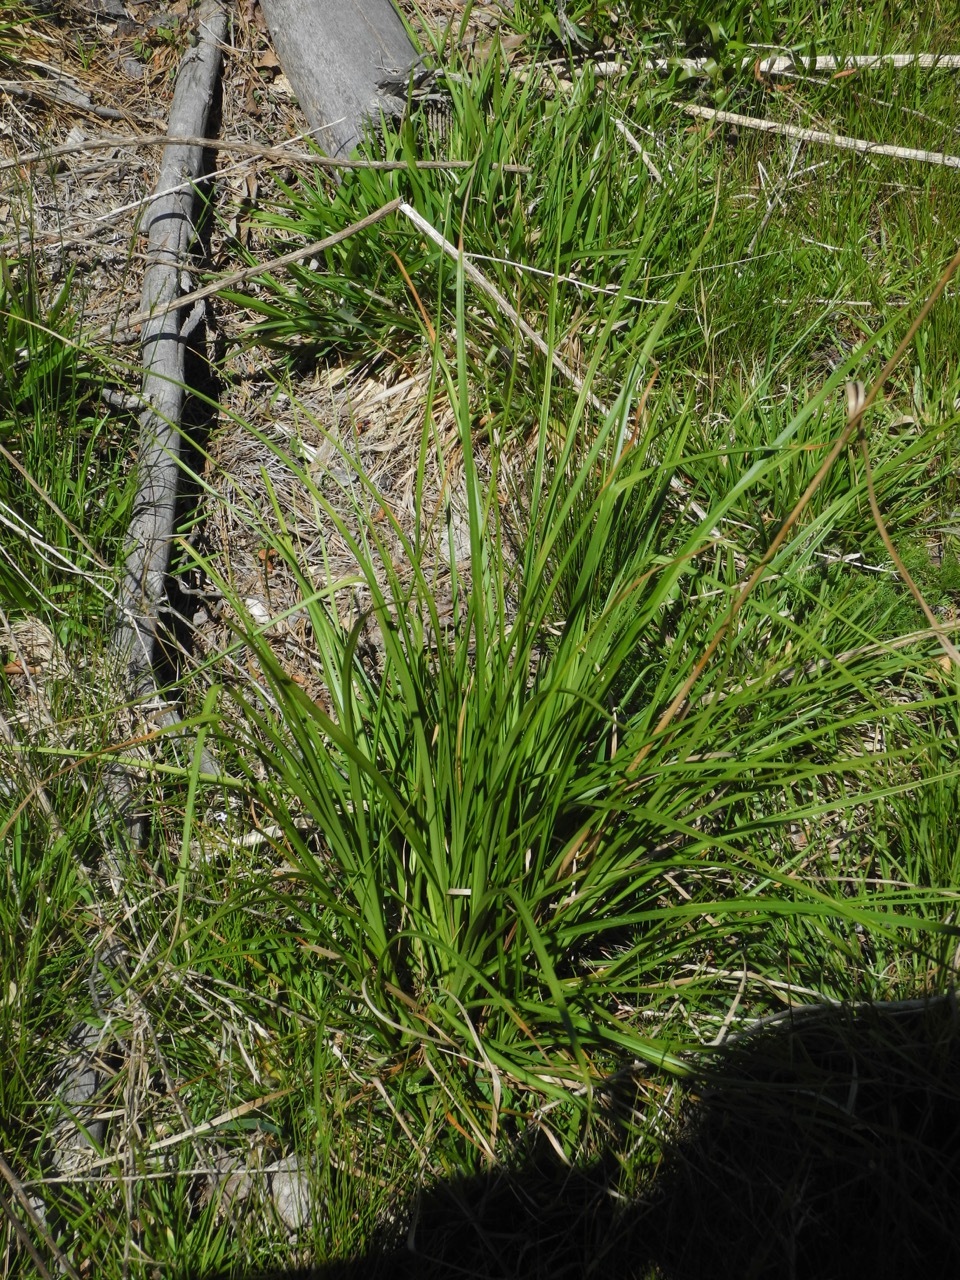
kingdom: Plantae
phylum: Tracheophyta
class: Liliopsida
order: Poales
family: Cyperaceae
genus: Scirpus
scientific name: Scirpus cyperinus
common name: Black-sheathed bulrush
